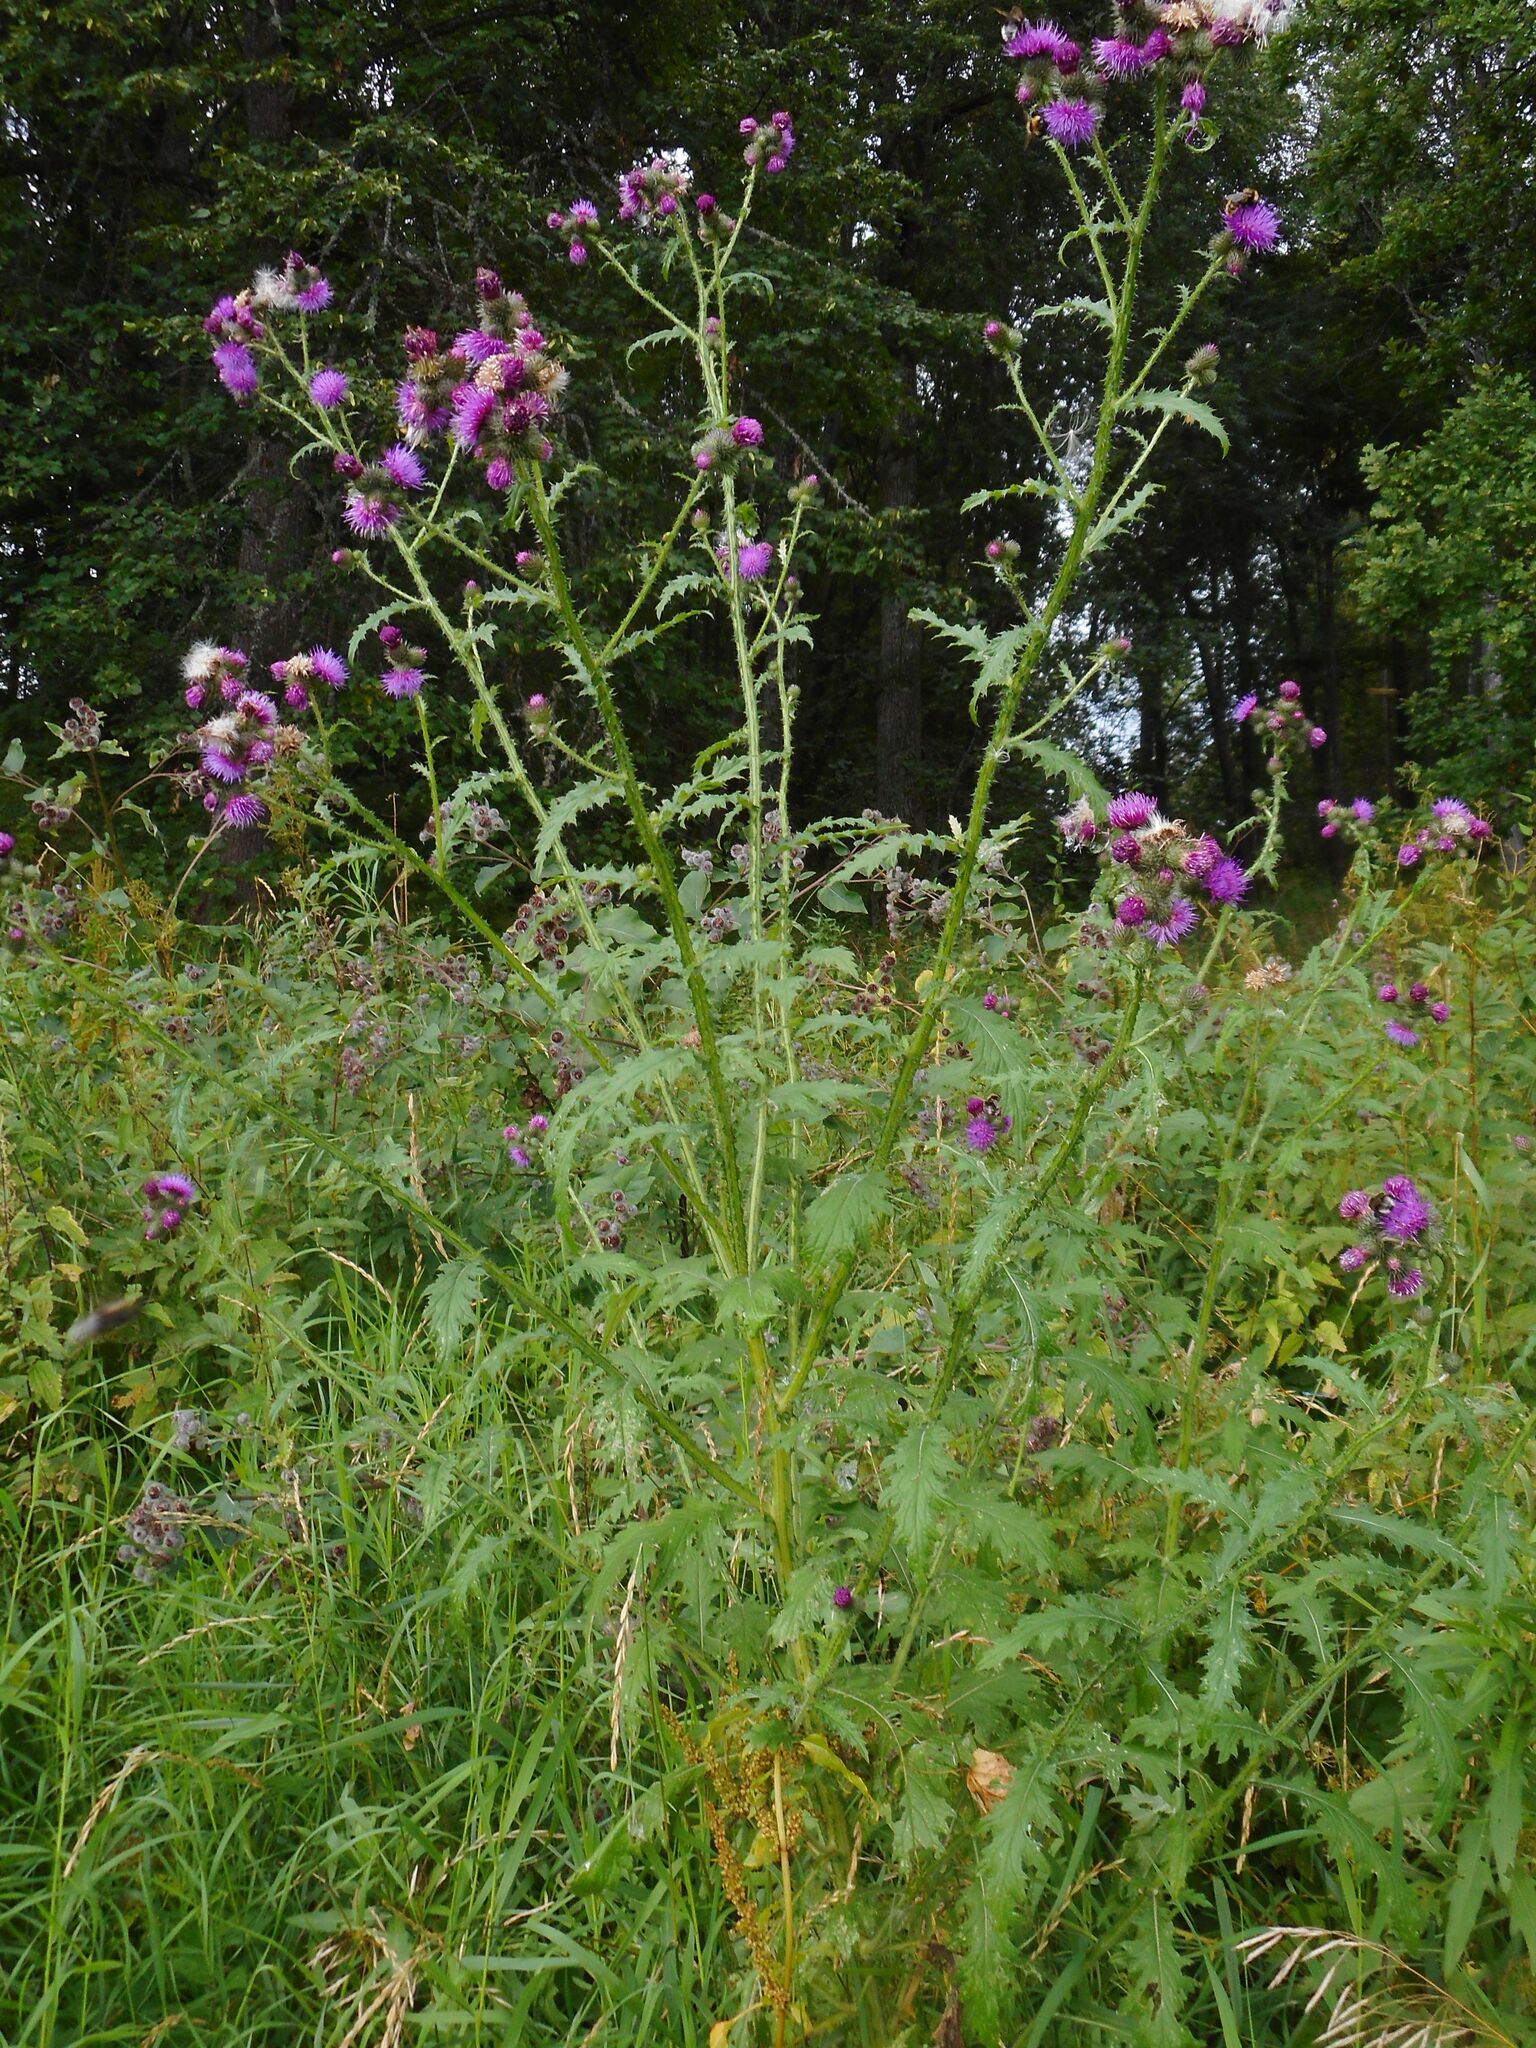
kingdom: Plantae
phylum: Tracheophyta
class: Magnoliopsida
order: Asterales
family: Asteraceae
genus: Carduus
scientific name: Carduus crispus
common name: Welted thistle
